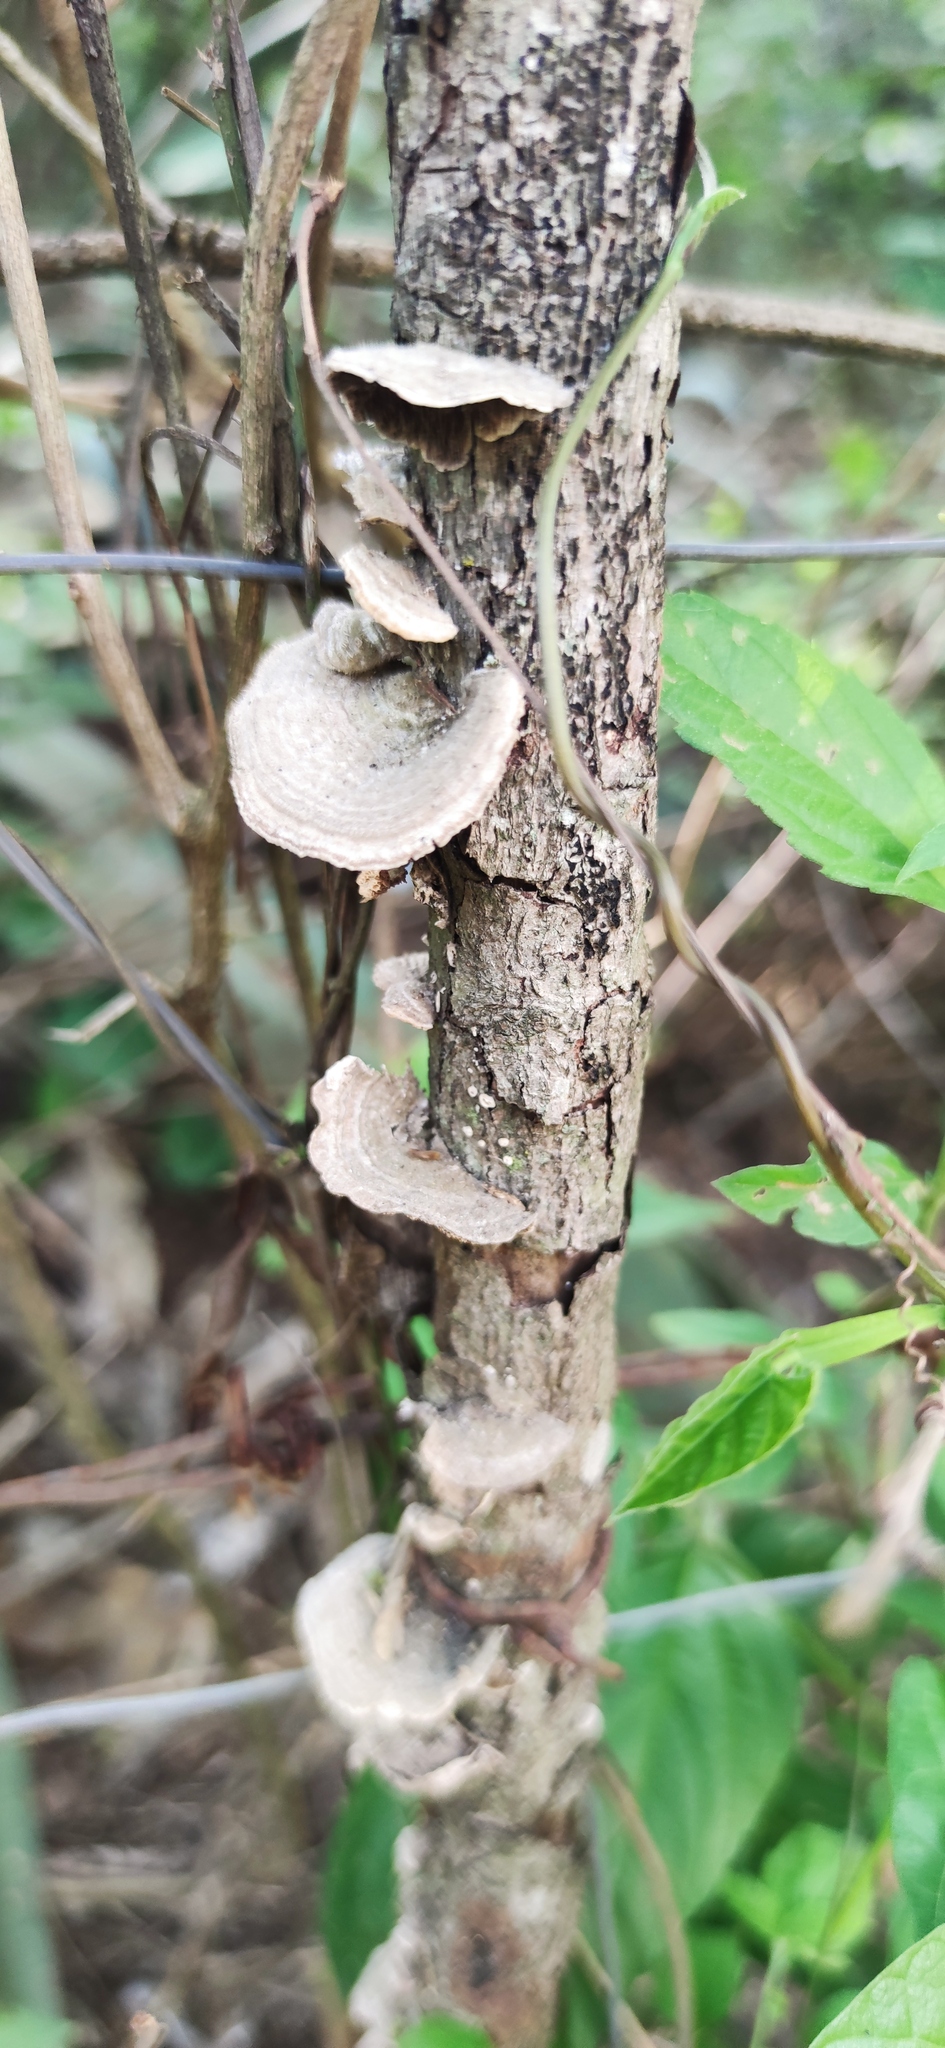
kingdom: Fungi
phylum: Basidiomycota
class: Agaricomycetes
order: Polyporales
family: Polyporaceae
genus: Trametes
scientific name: Trametes villosa
